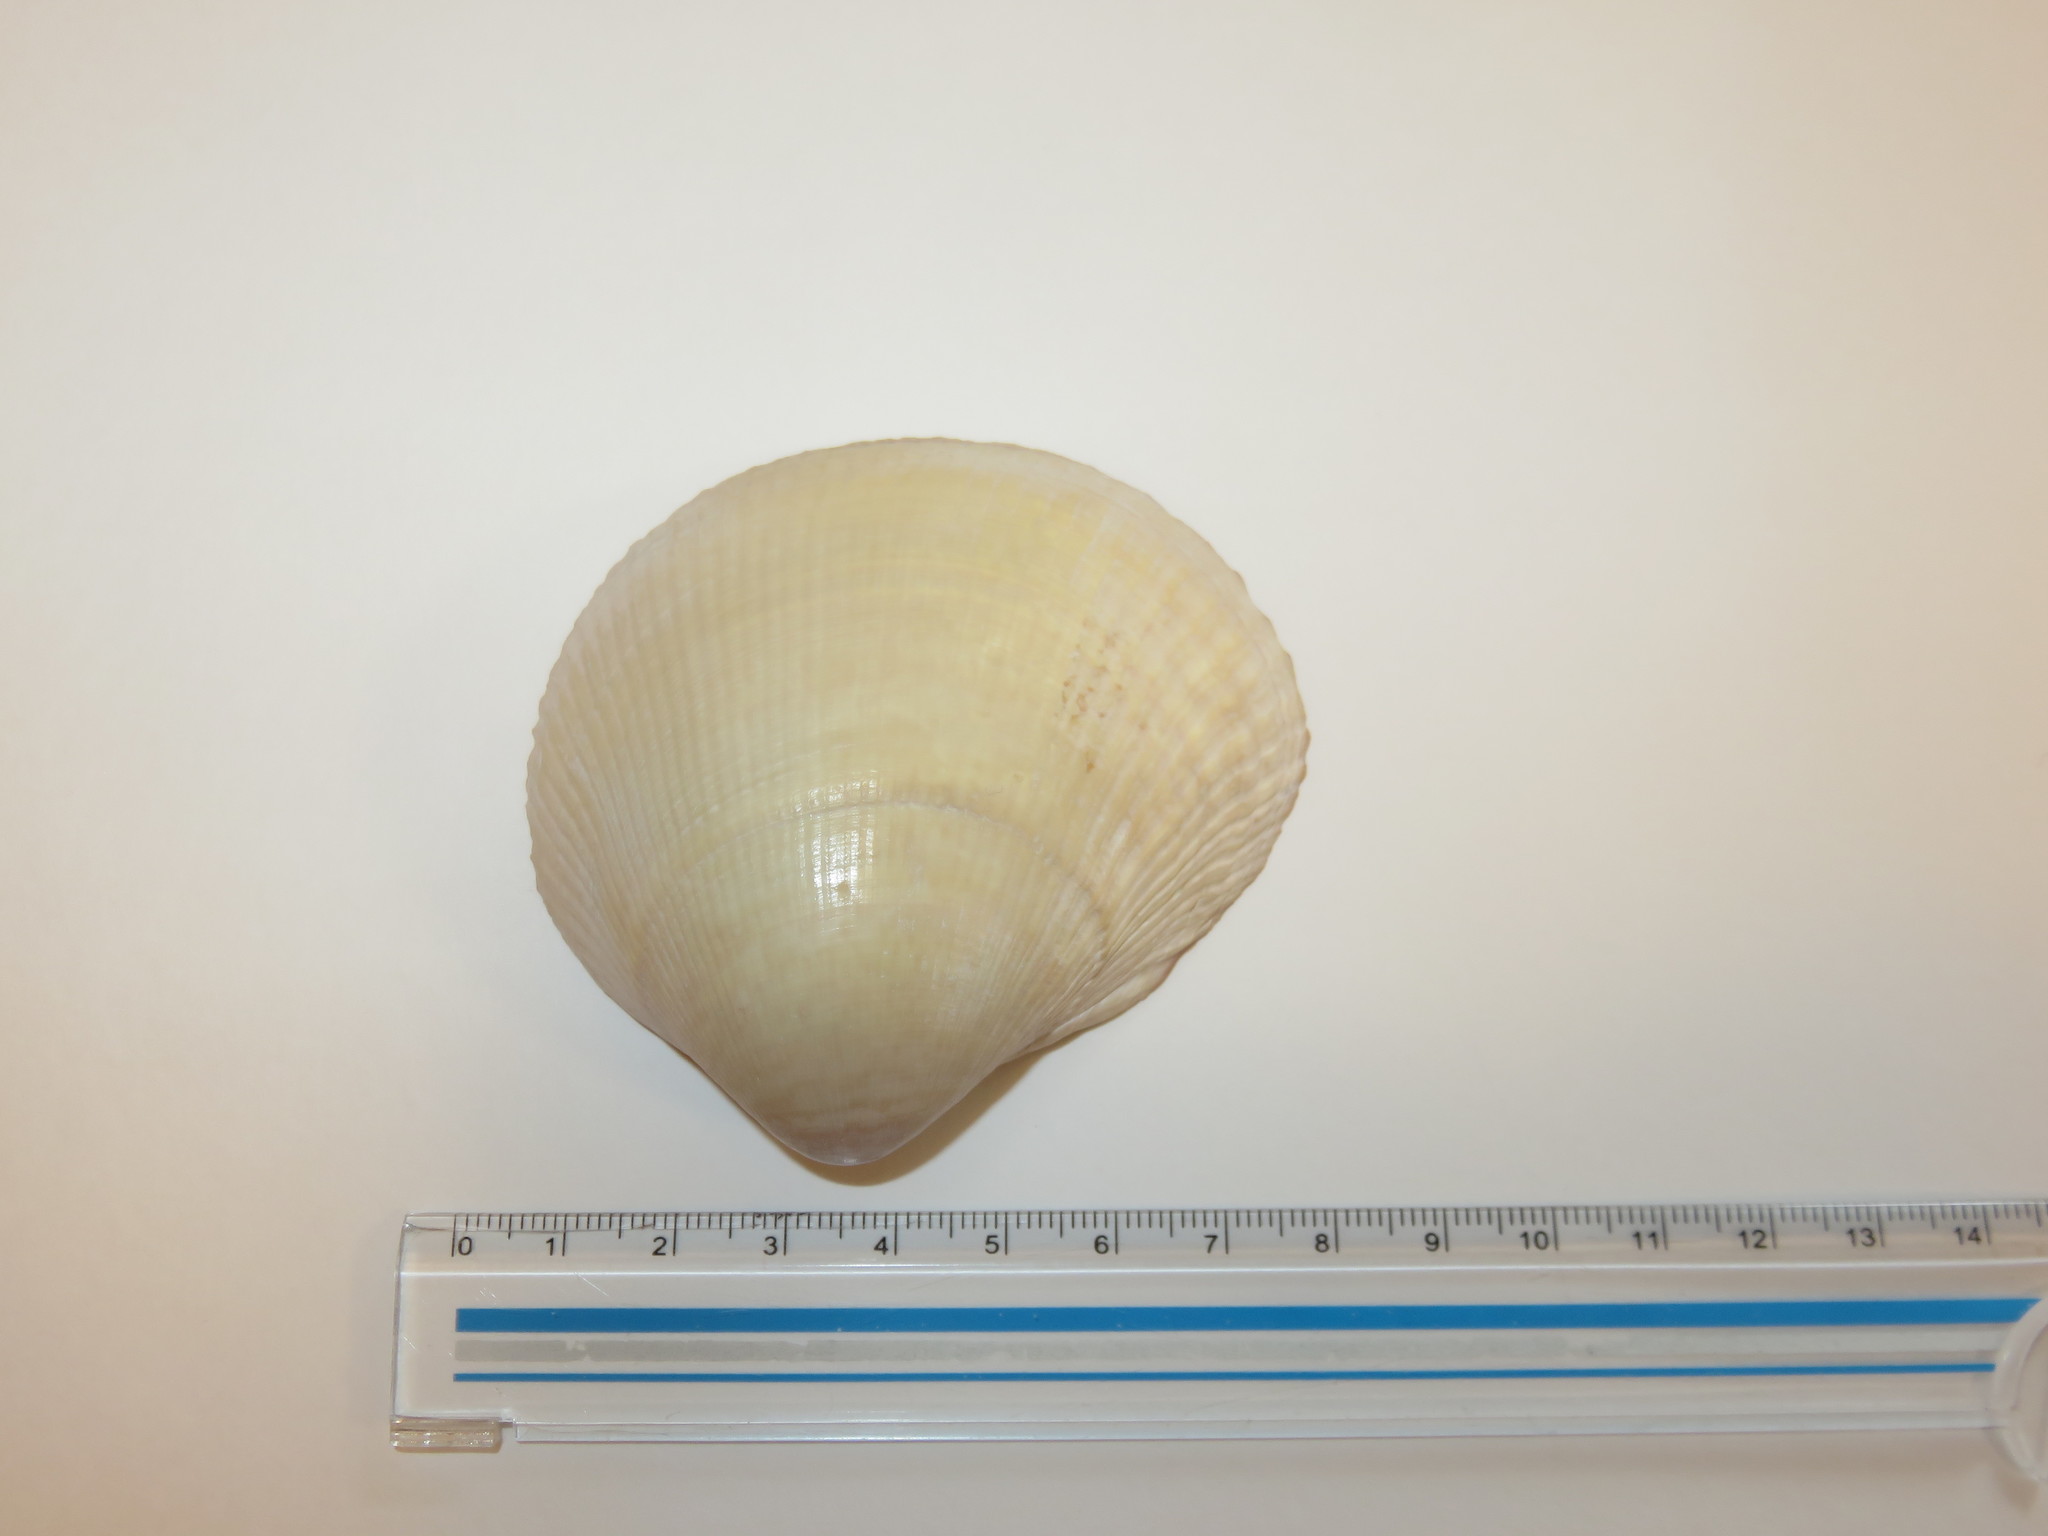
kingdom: Animalia
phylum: Mollusca
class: Bivalvia
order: Cardiida
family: Cardiidae
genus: Fulvia
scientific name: Fulvia mutica
